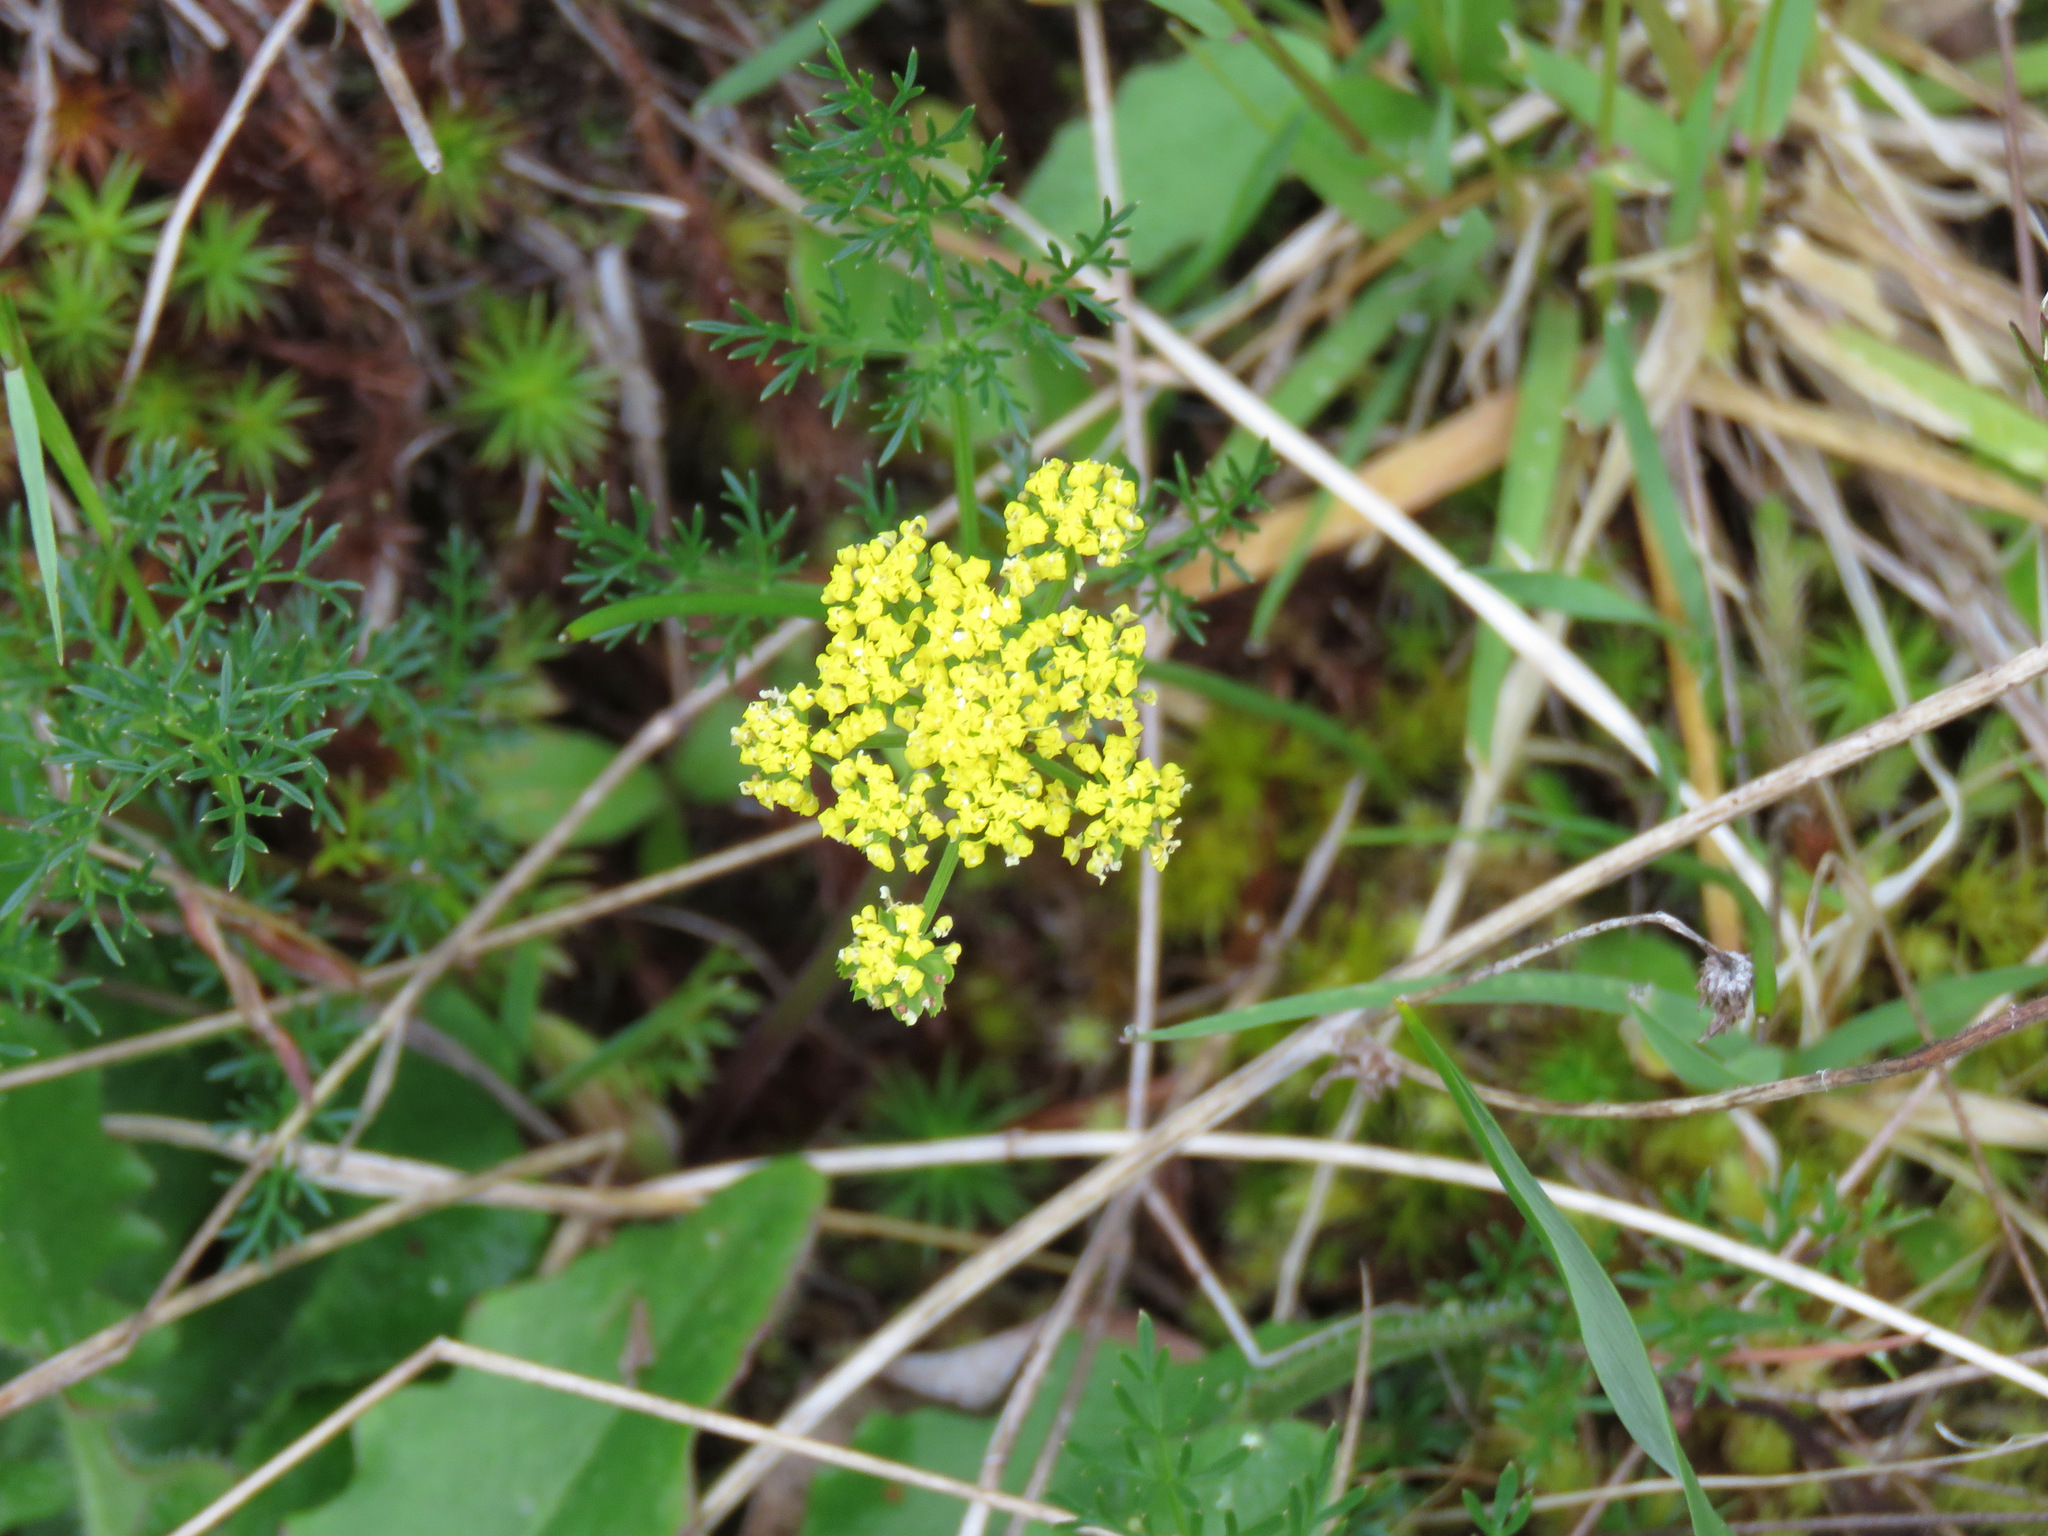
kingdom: Plantae
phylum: Tracheophyta
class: Magnoliopsida
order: Apiales
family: Apiaceae
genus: Lomatium
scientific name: Lomatium utriculatum
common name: Fine-leaf desert-parsley
